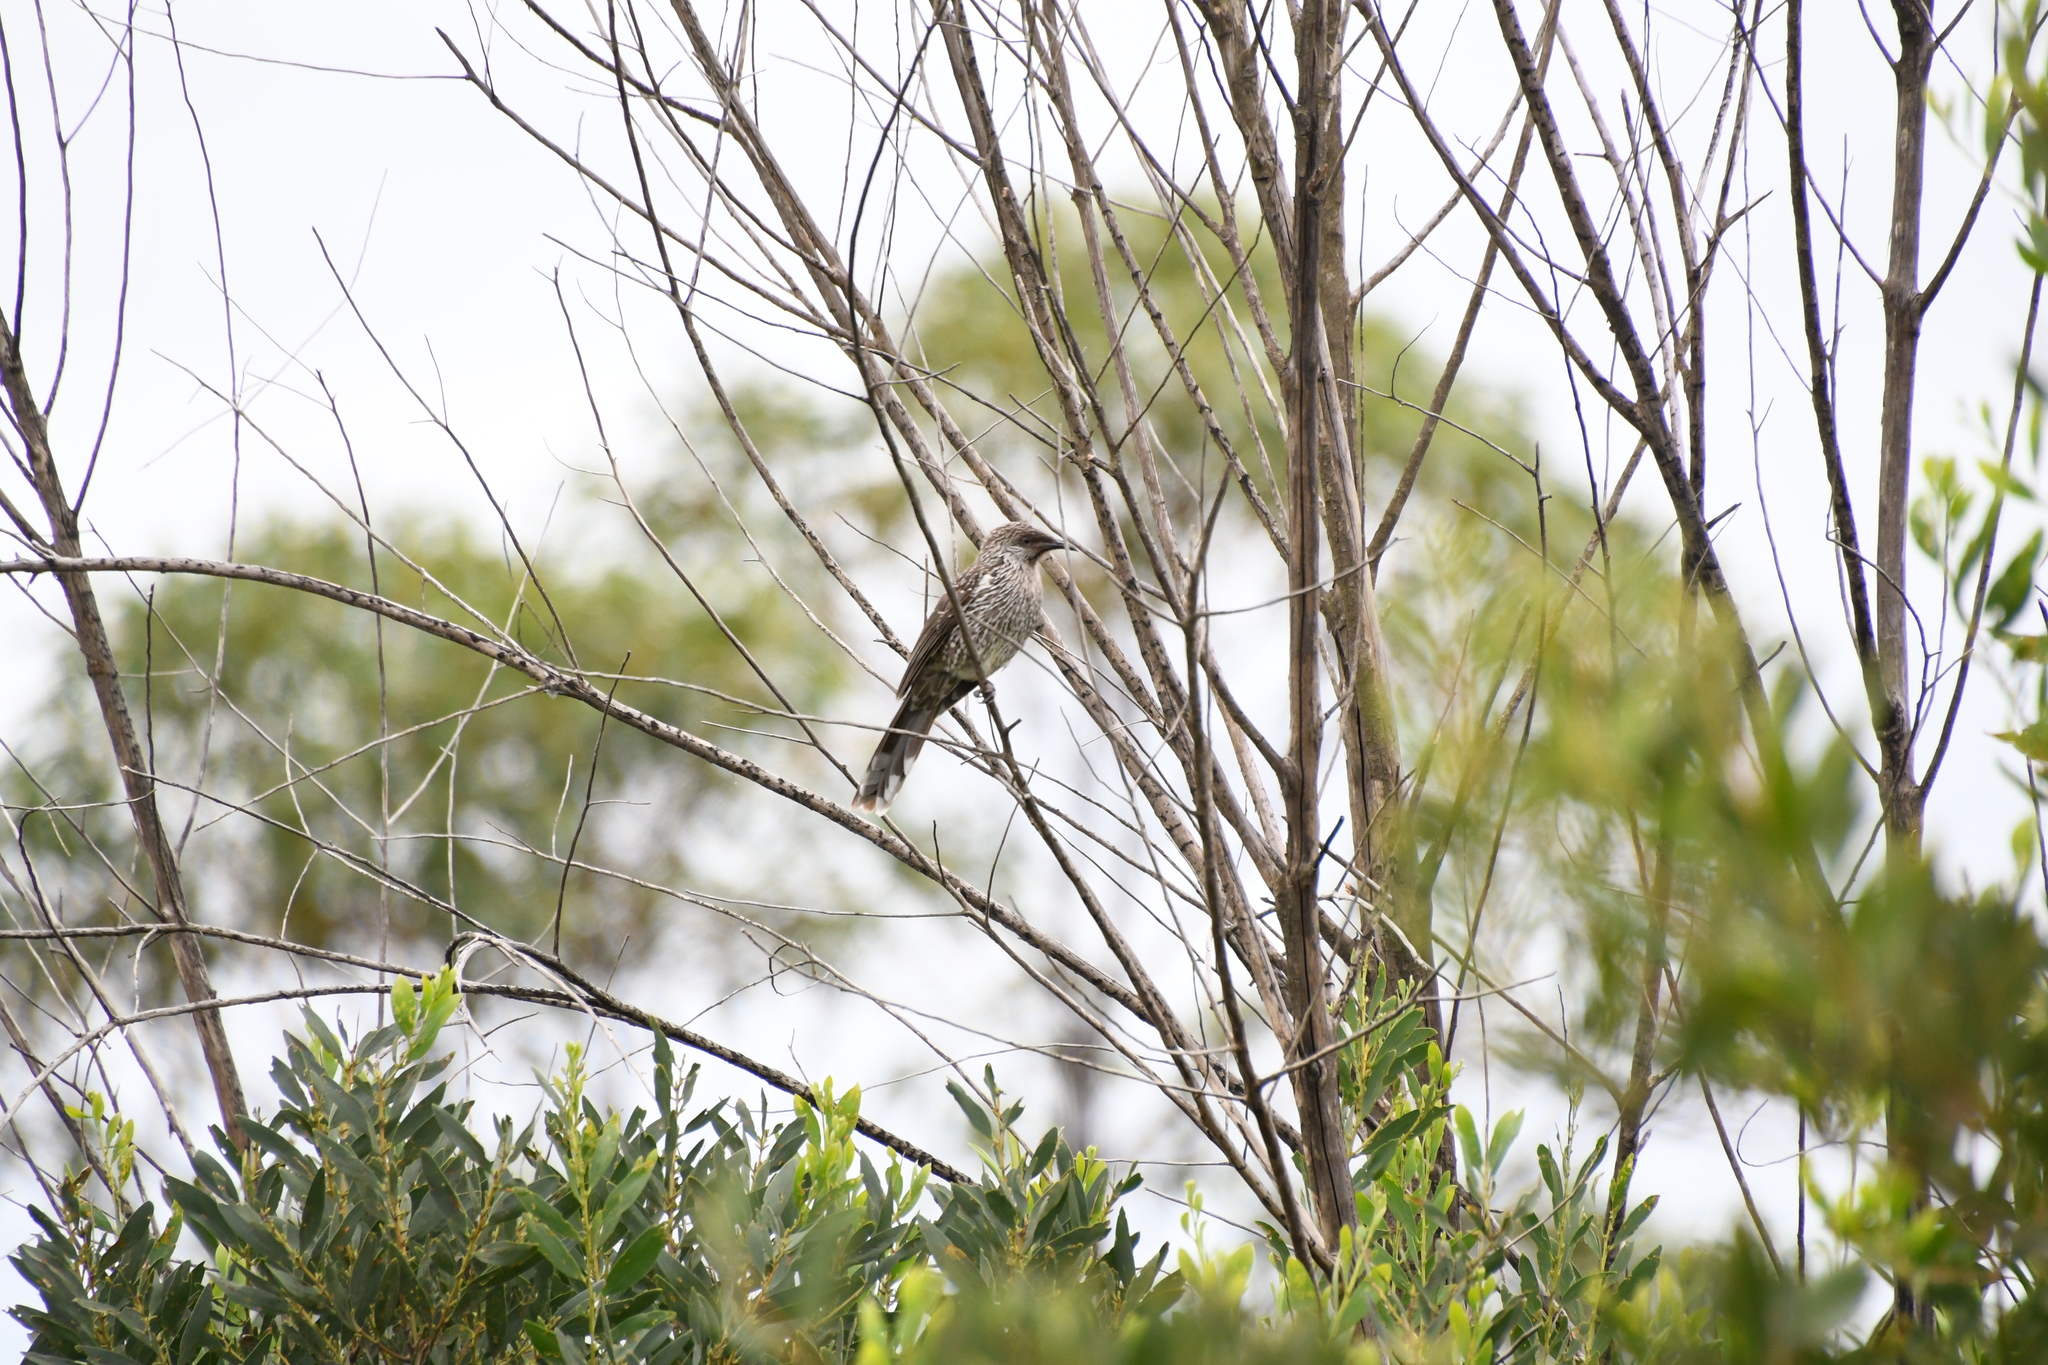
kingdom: Animalia
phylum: Chordata
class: Aves
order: Passeriformes
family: Meliphagidae
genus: Anthochaera
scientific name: Anthochaera chrysoptera
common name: Little wattlebird
